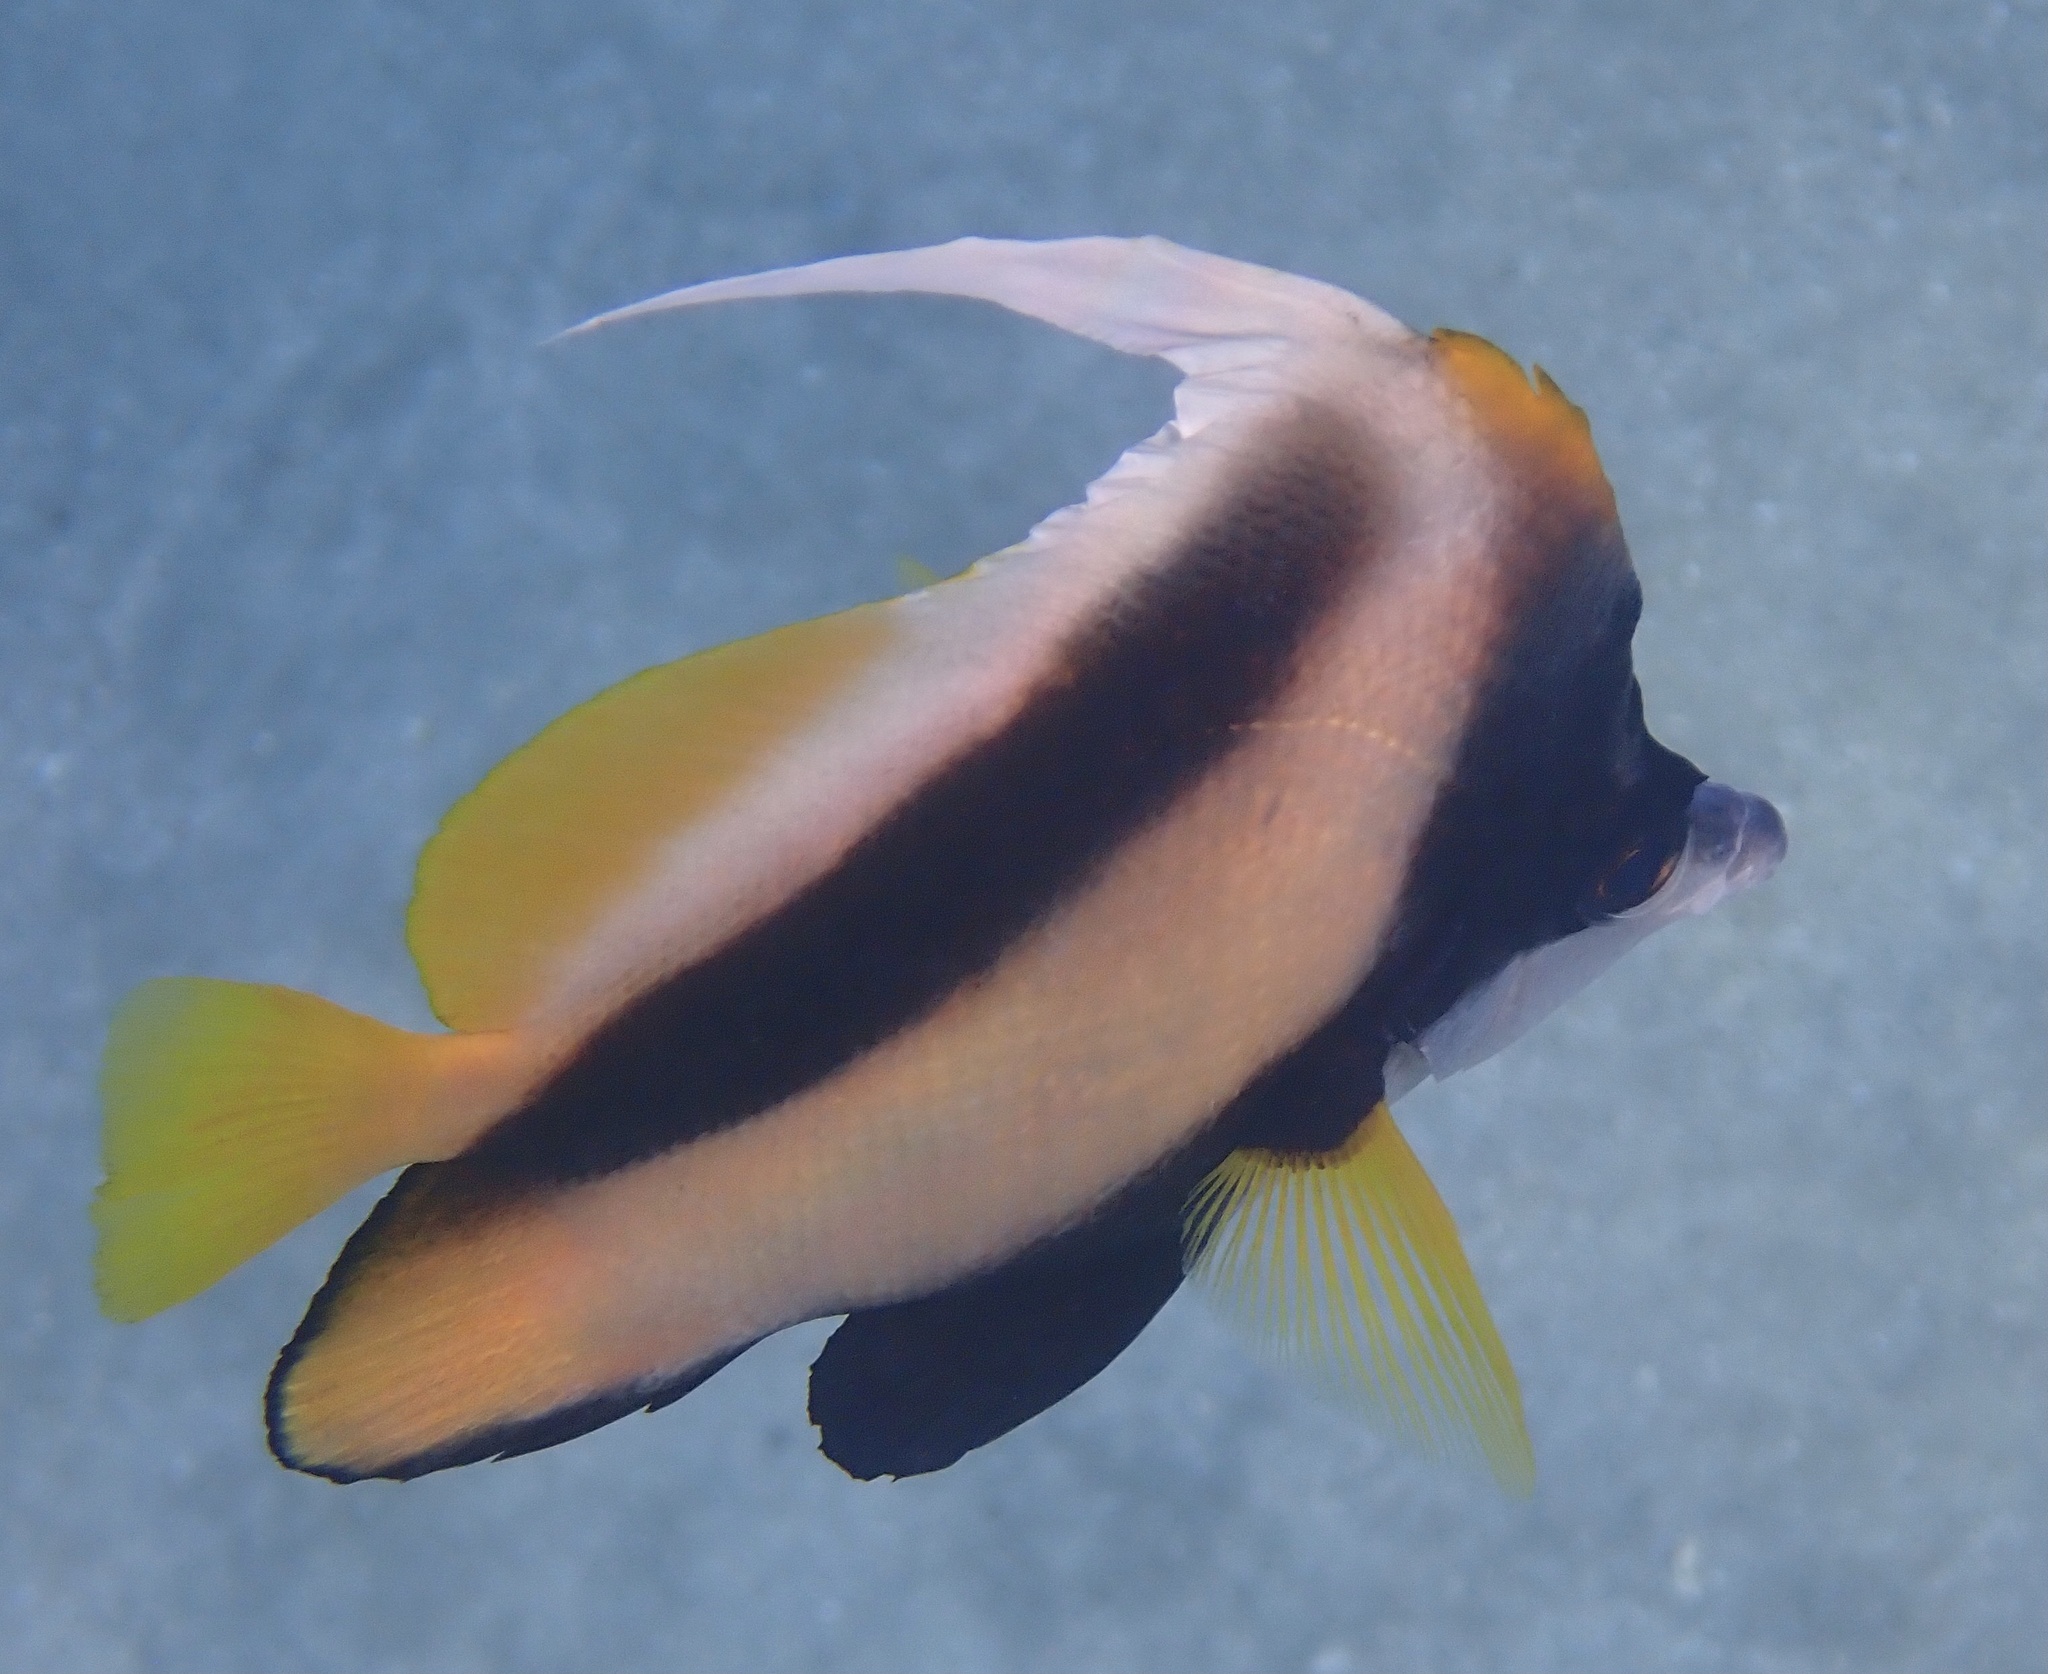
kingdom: Animalia
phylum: Chordata
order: Perciformes
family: Chaetodontidae
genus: Heniochus
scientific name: Heniochus intermedius
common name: Red sea bannerfish
